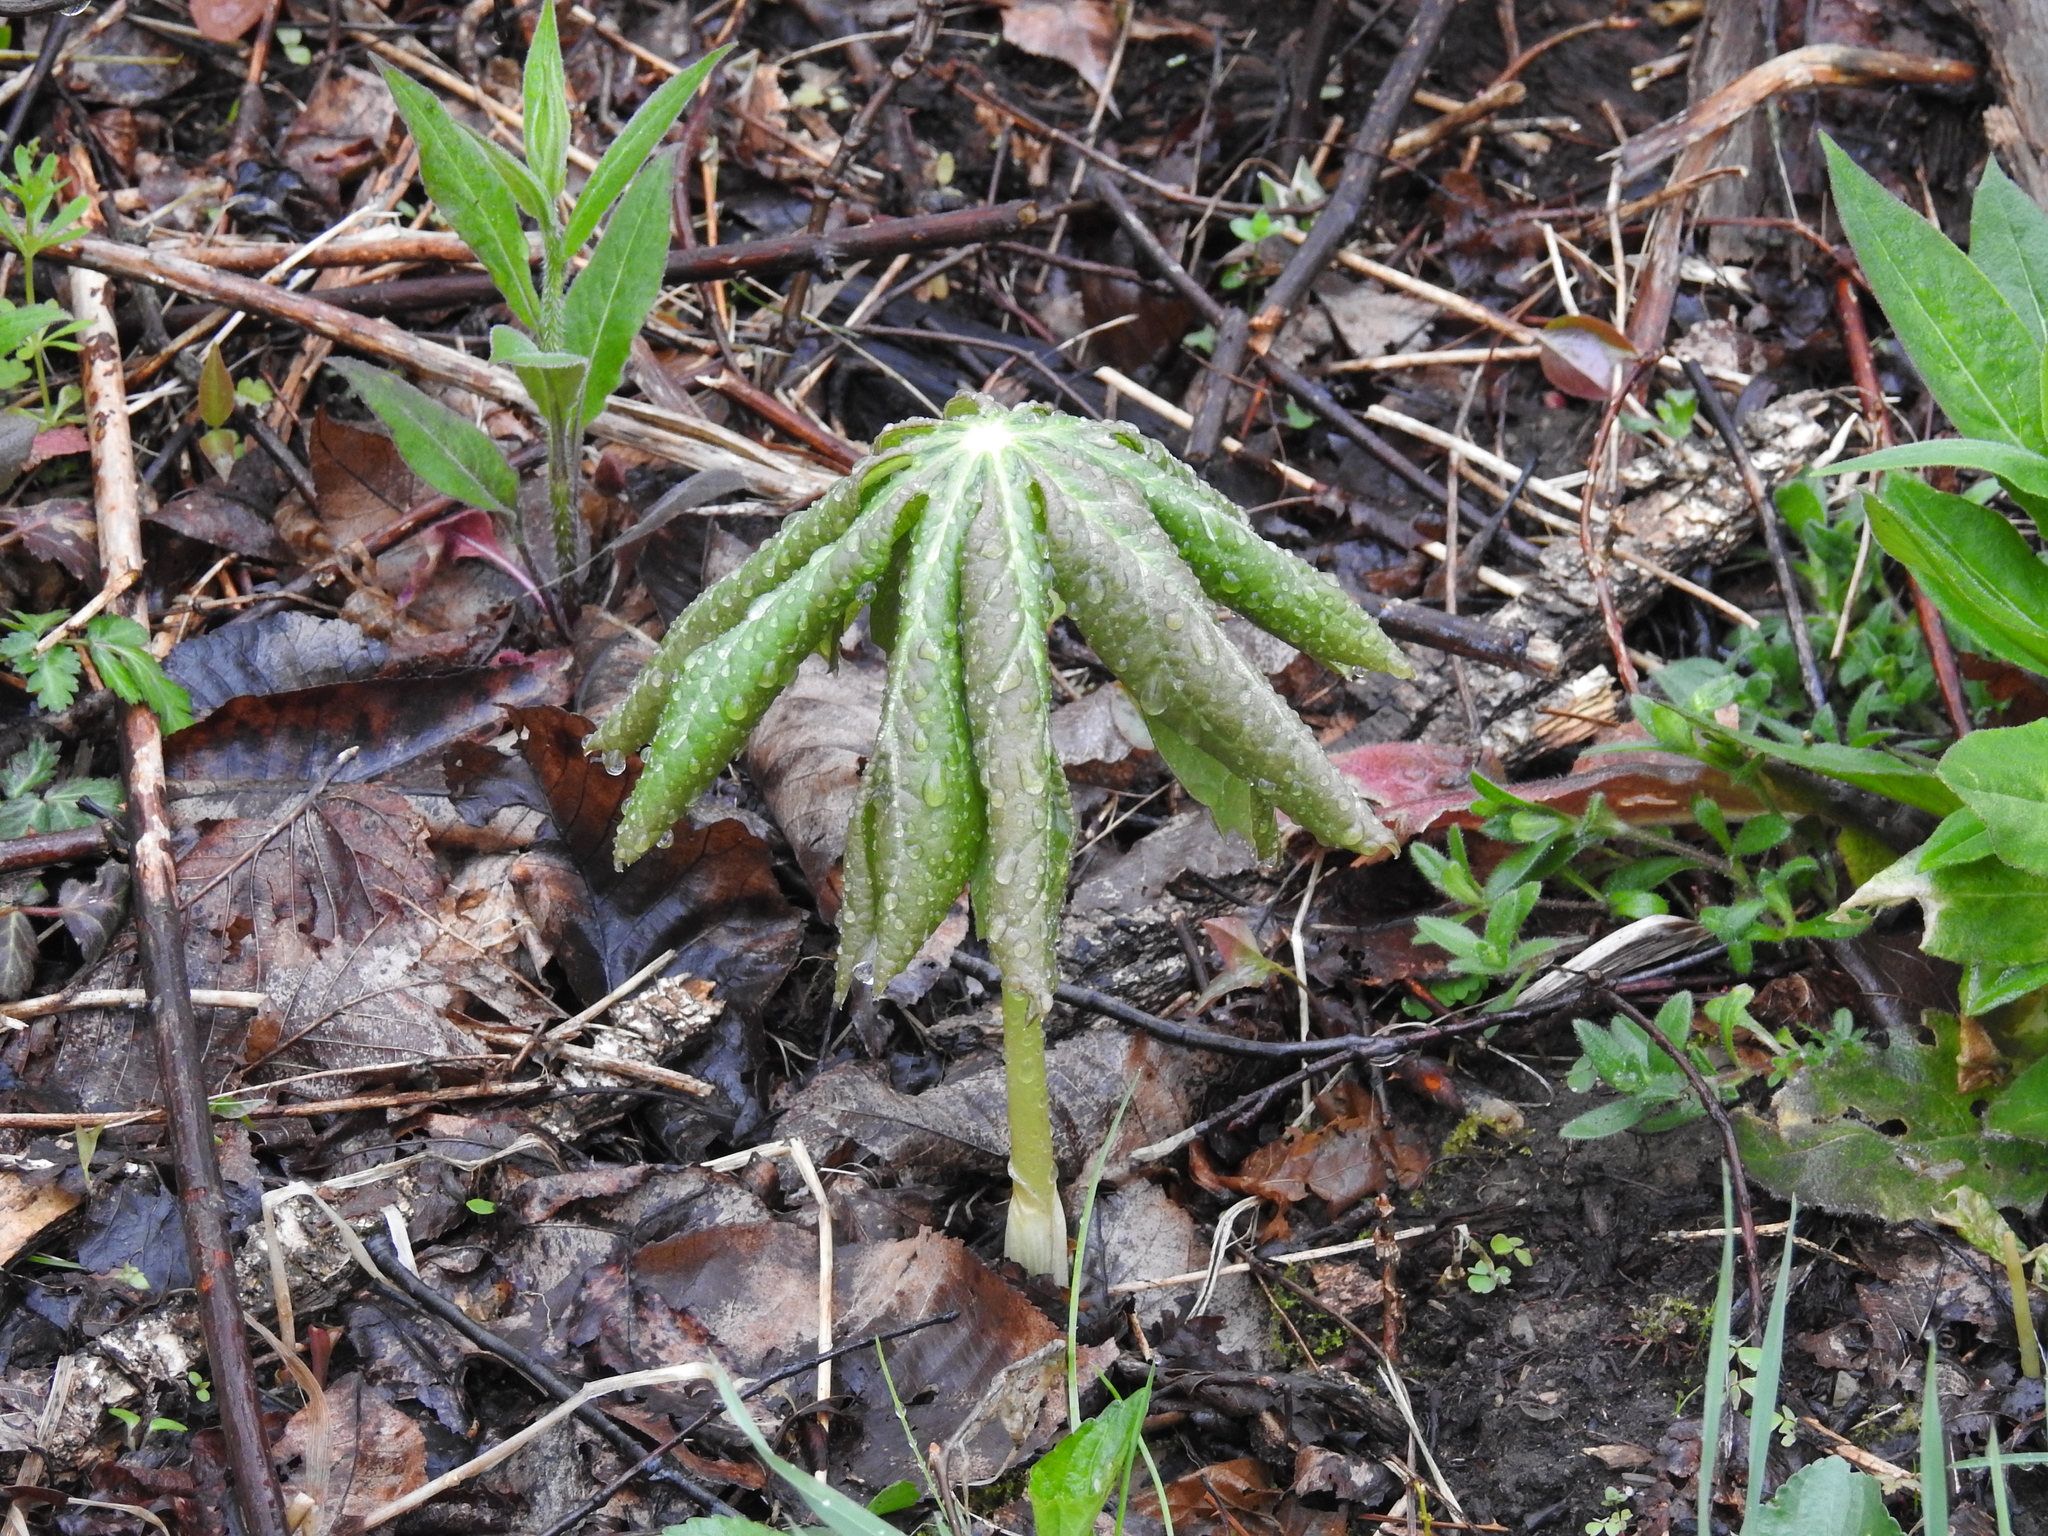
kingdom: Plantae
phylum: Tracheophyta
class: Magnoliopsida
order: Ranunculales
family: Berberidaceae
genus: Podophyllum
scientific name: Podophyllum peltatum
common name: Wild mandrake
